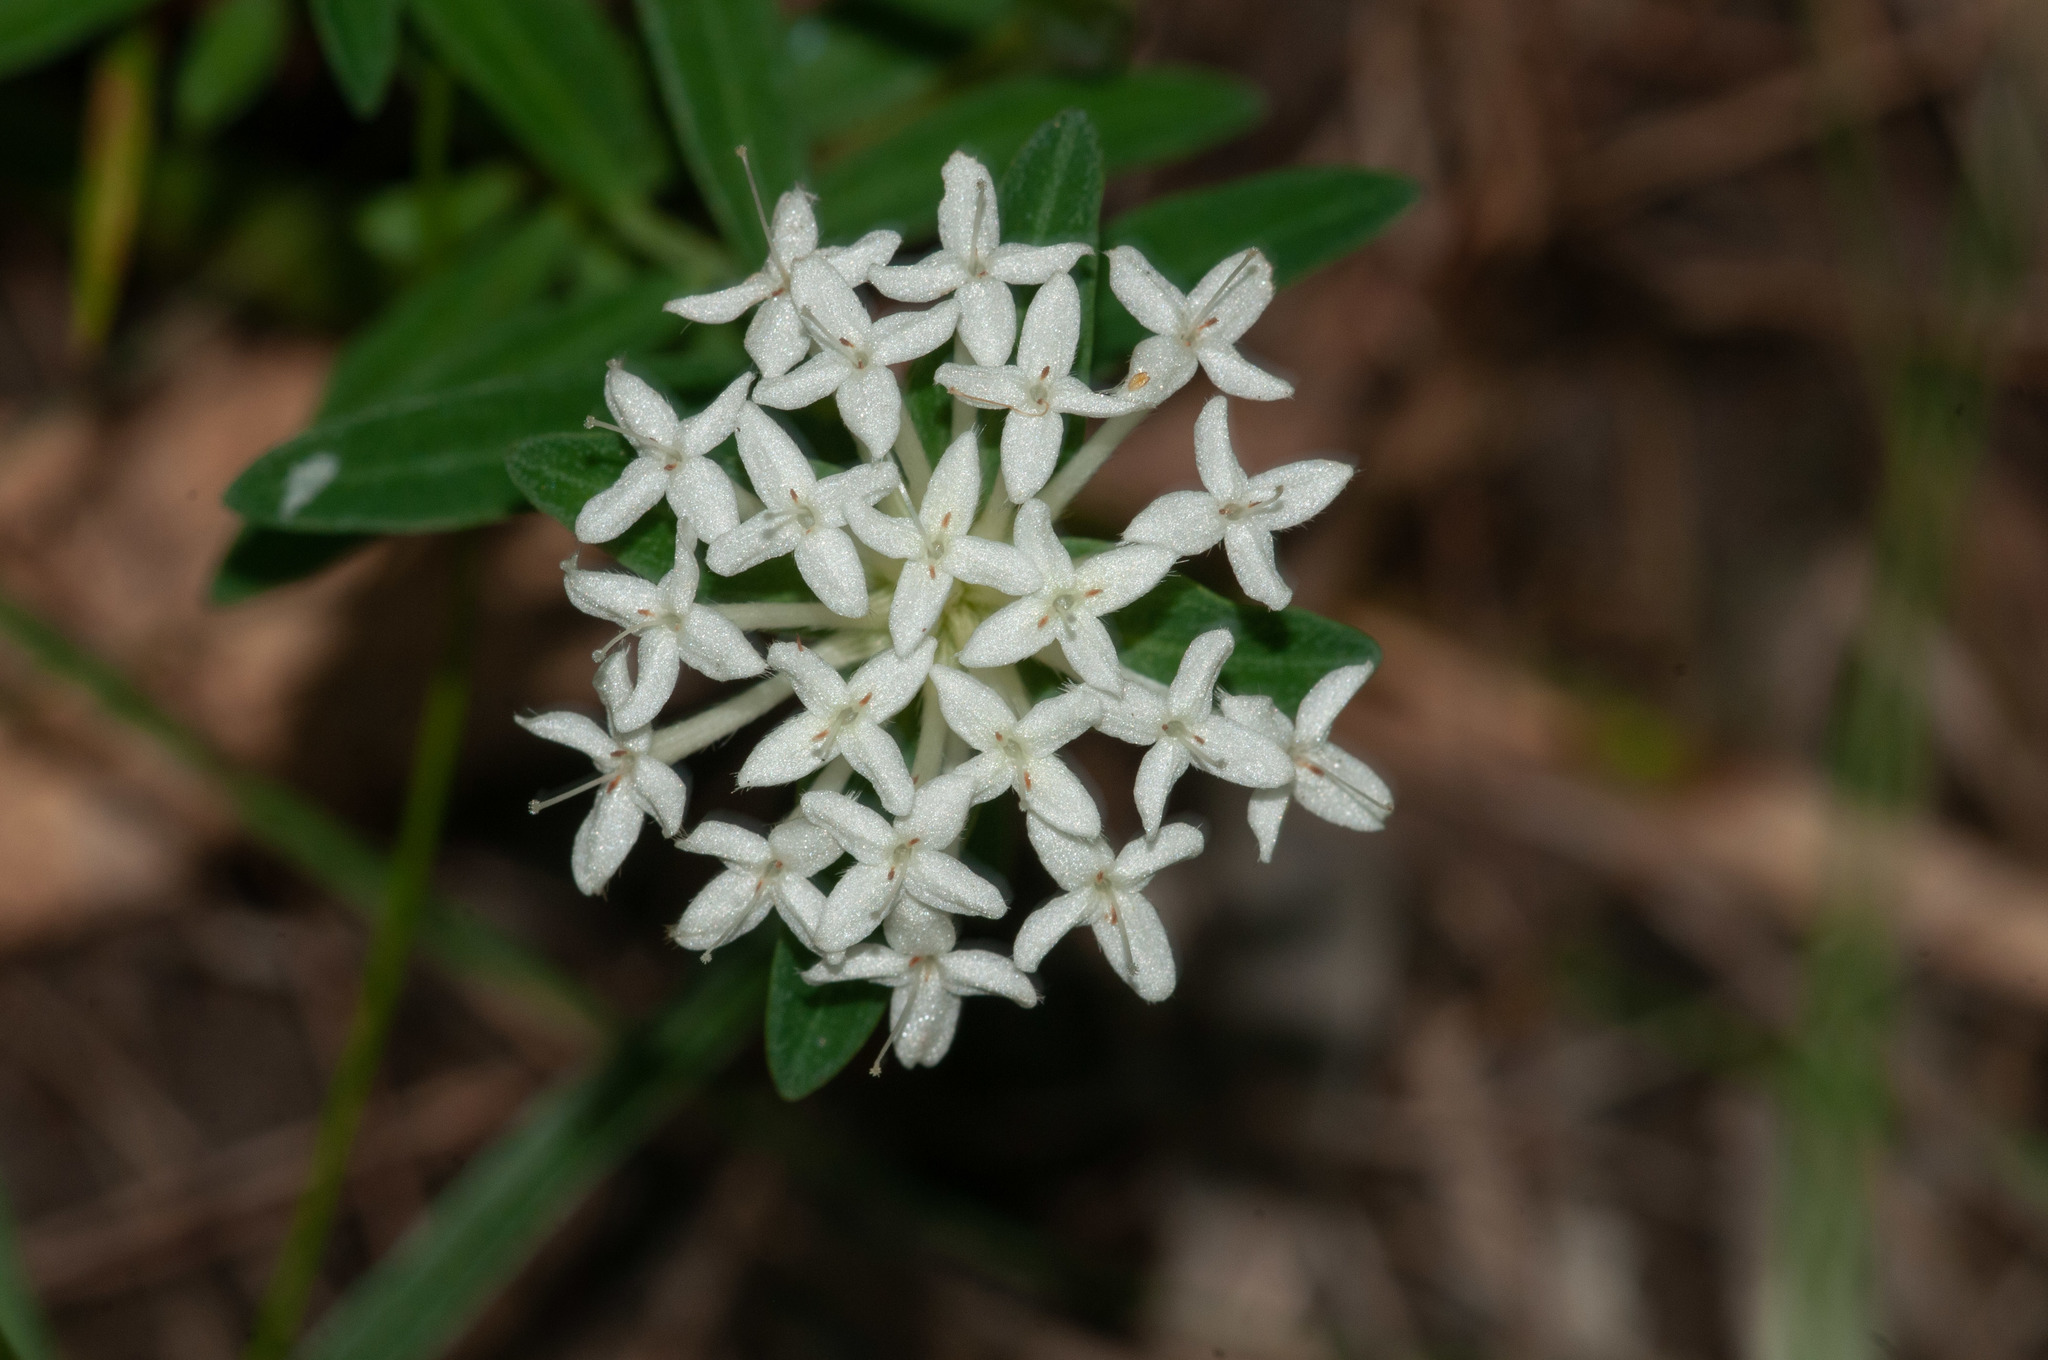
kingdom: Plantae
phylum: Tracheophyta
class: Magnoliopsida
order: Malvales
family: Thymelaeaceae
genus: Pimelea
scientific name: Pimelea linifolia
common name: Queen-of-the-bush
